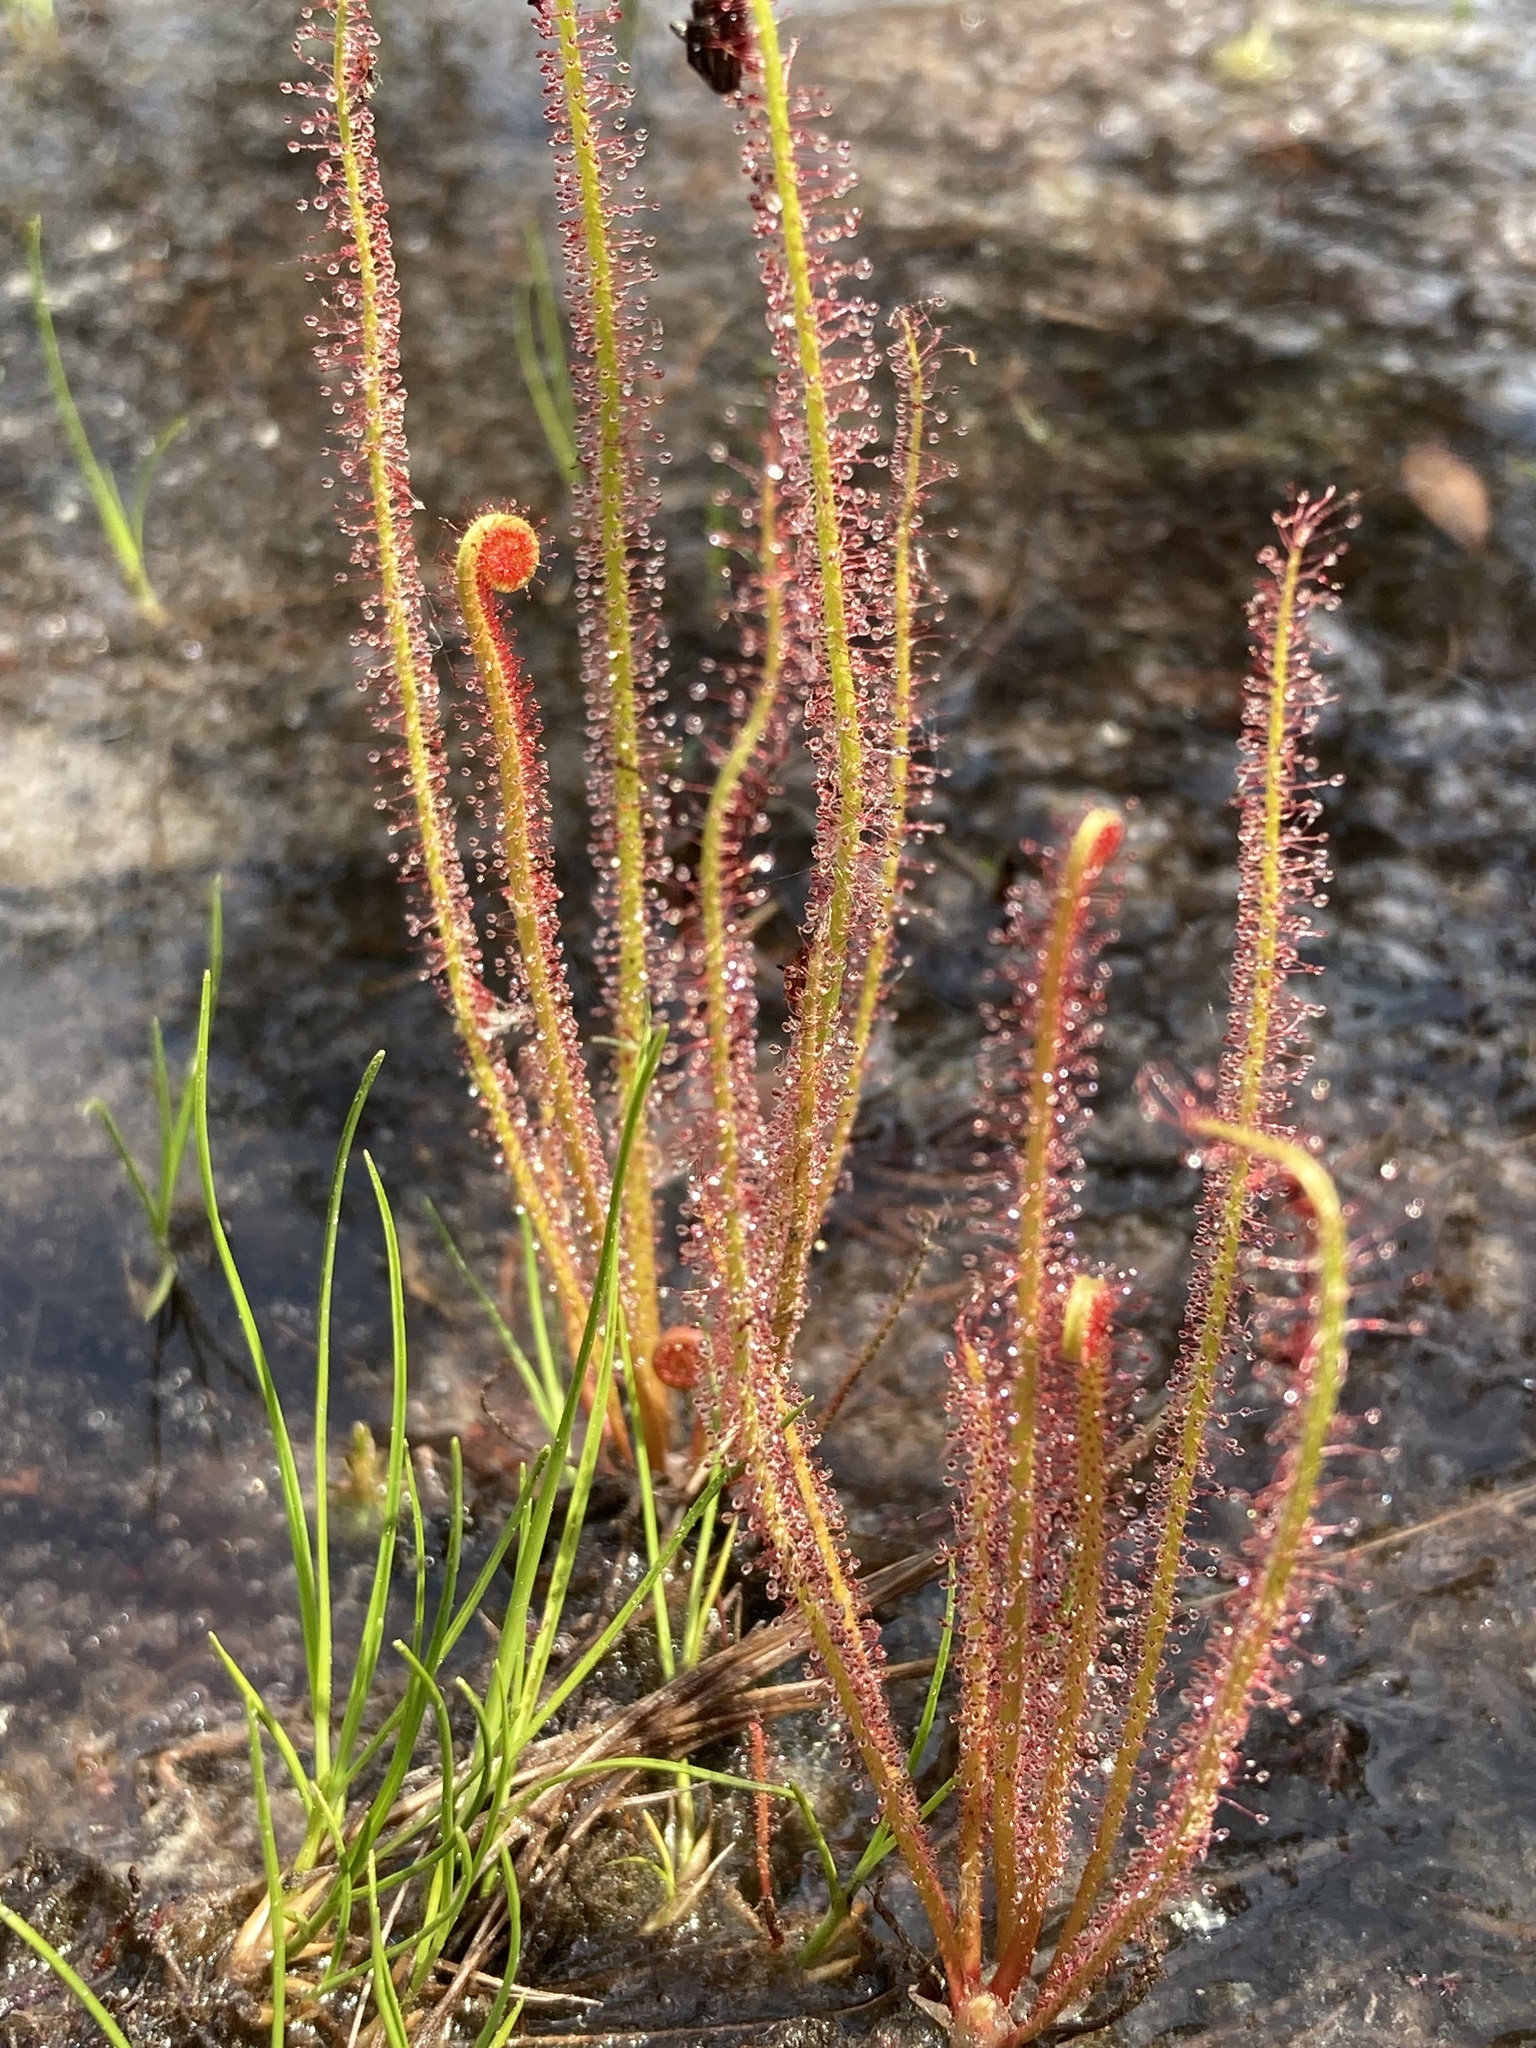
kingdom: Plantae
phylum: Tracheophyta
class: Magnoliopsida
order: Caryophyllales
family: Droseraceae
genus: Drosera
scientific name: Drosera filiformis
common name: Dew-thread
